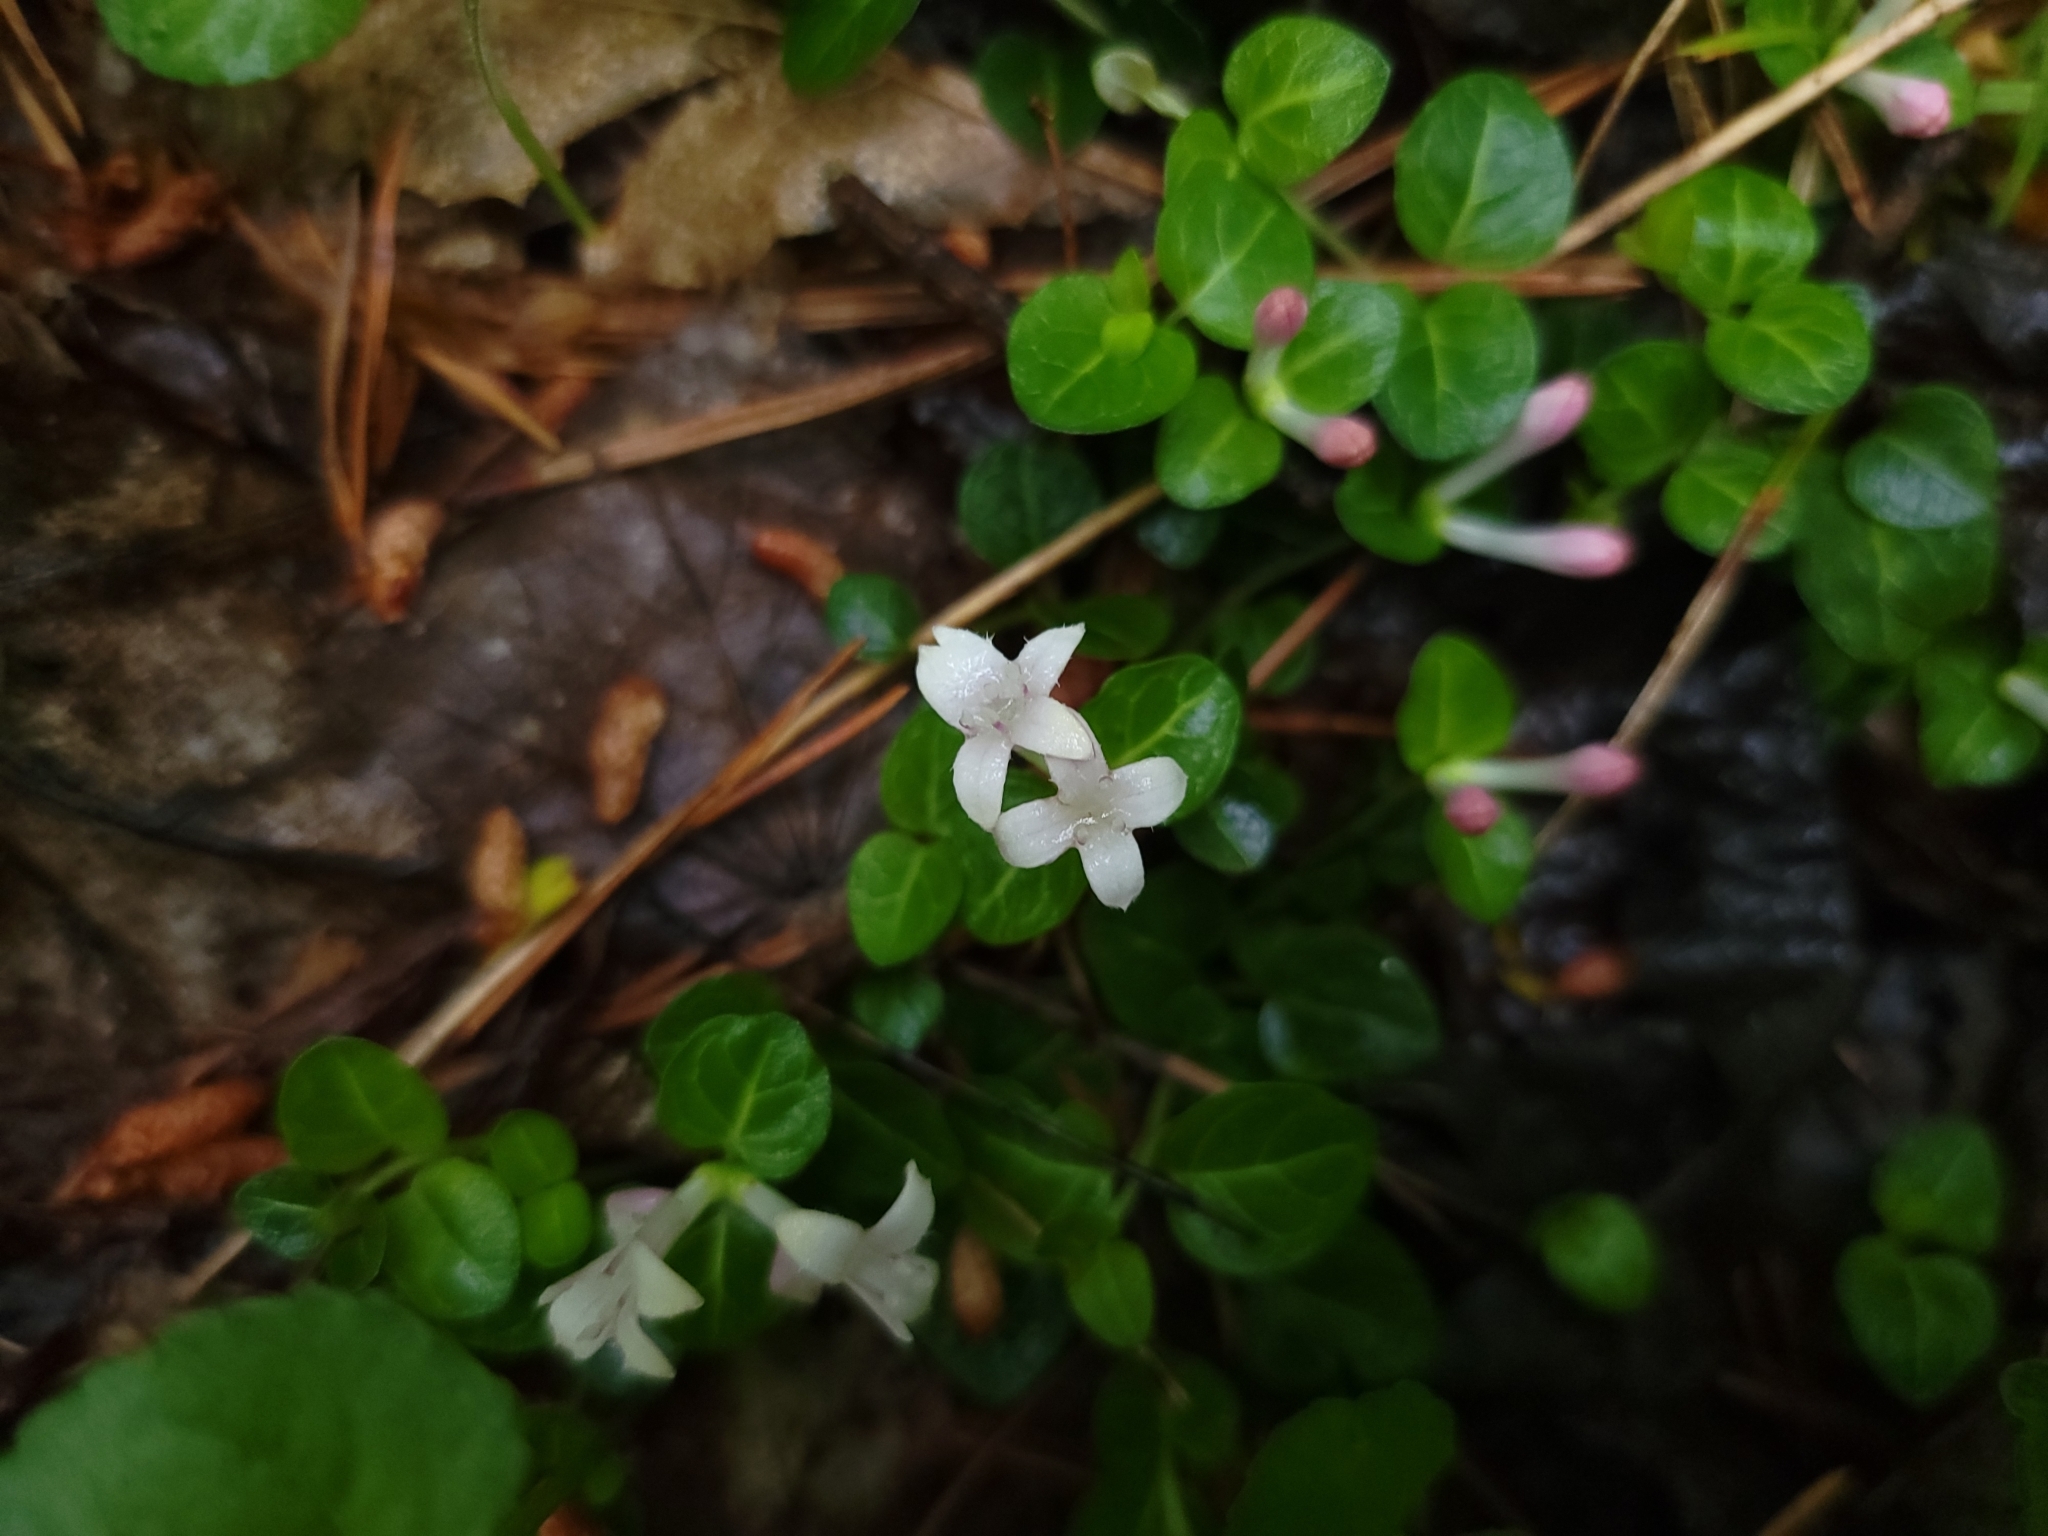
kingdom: Plantae
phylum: Tracheophyta
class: Magnoliopsida
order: Gentianales
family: Rubiaceae
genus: Mitchella
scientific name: Mitchella repens
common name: Partridge-berry
